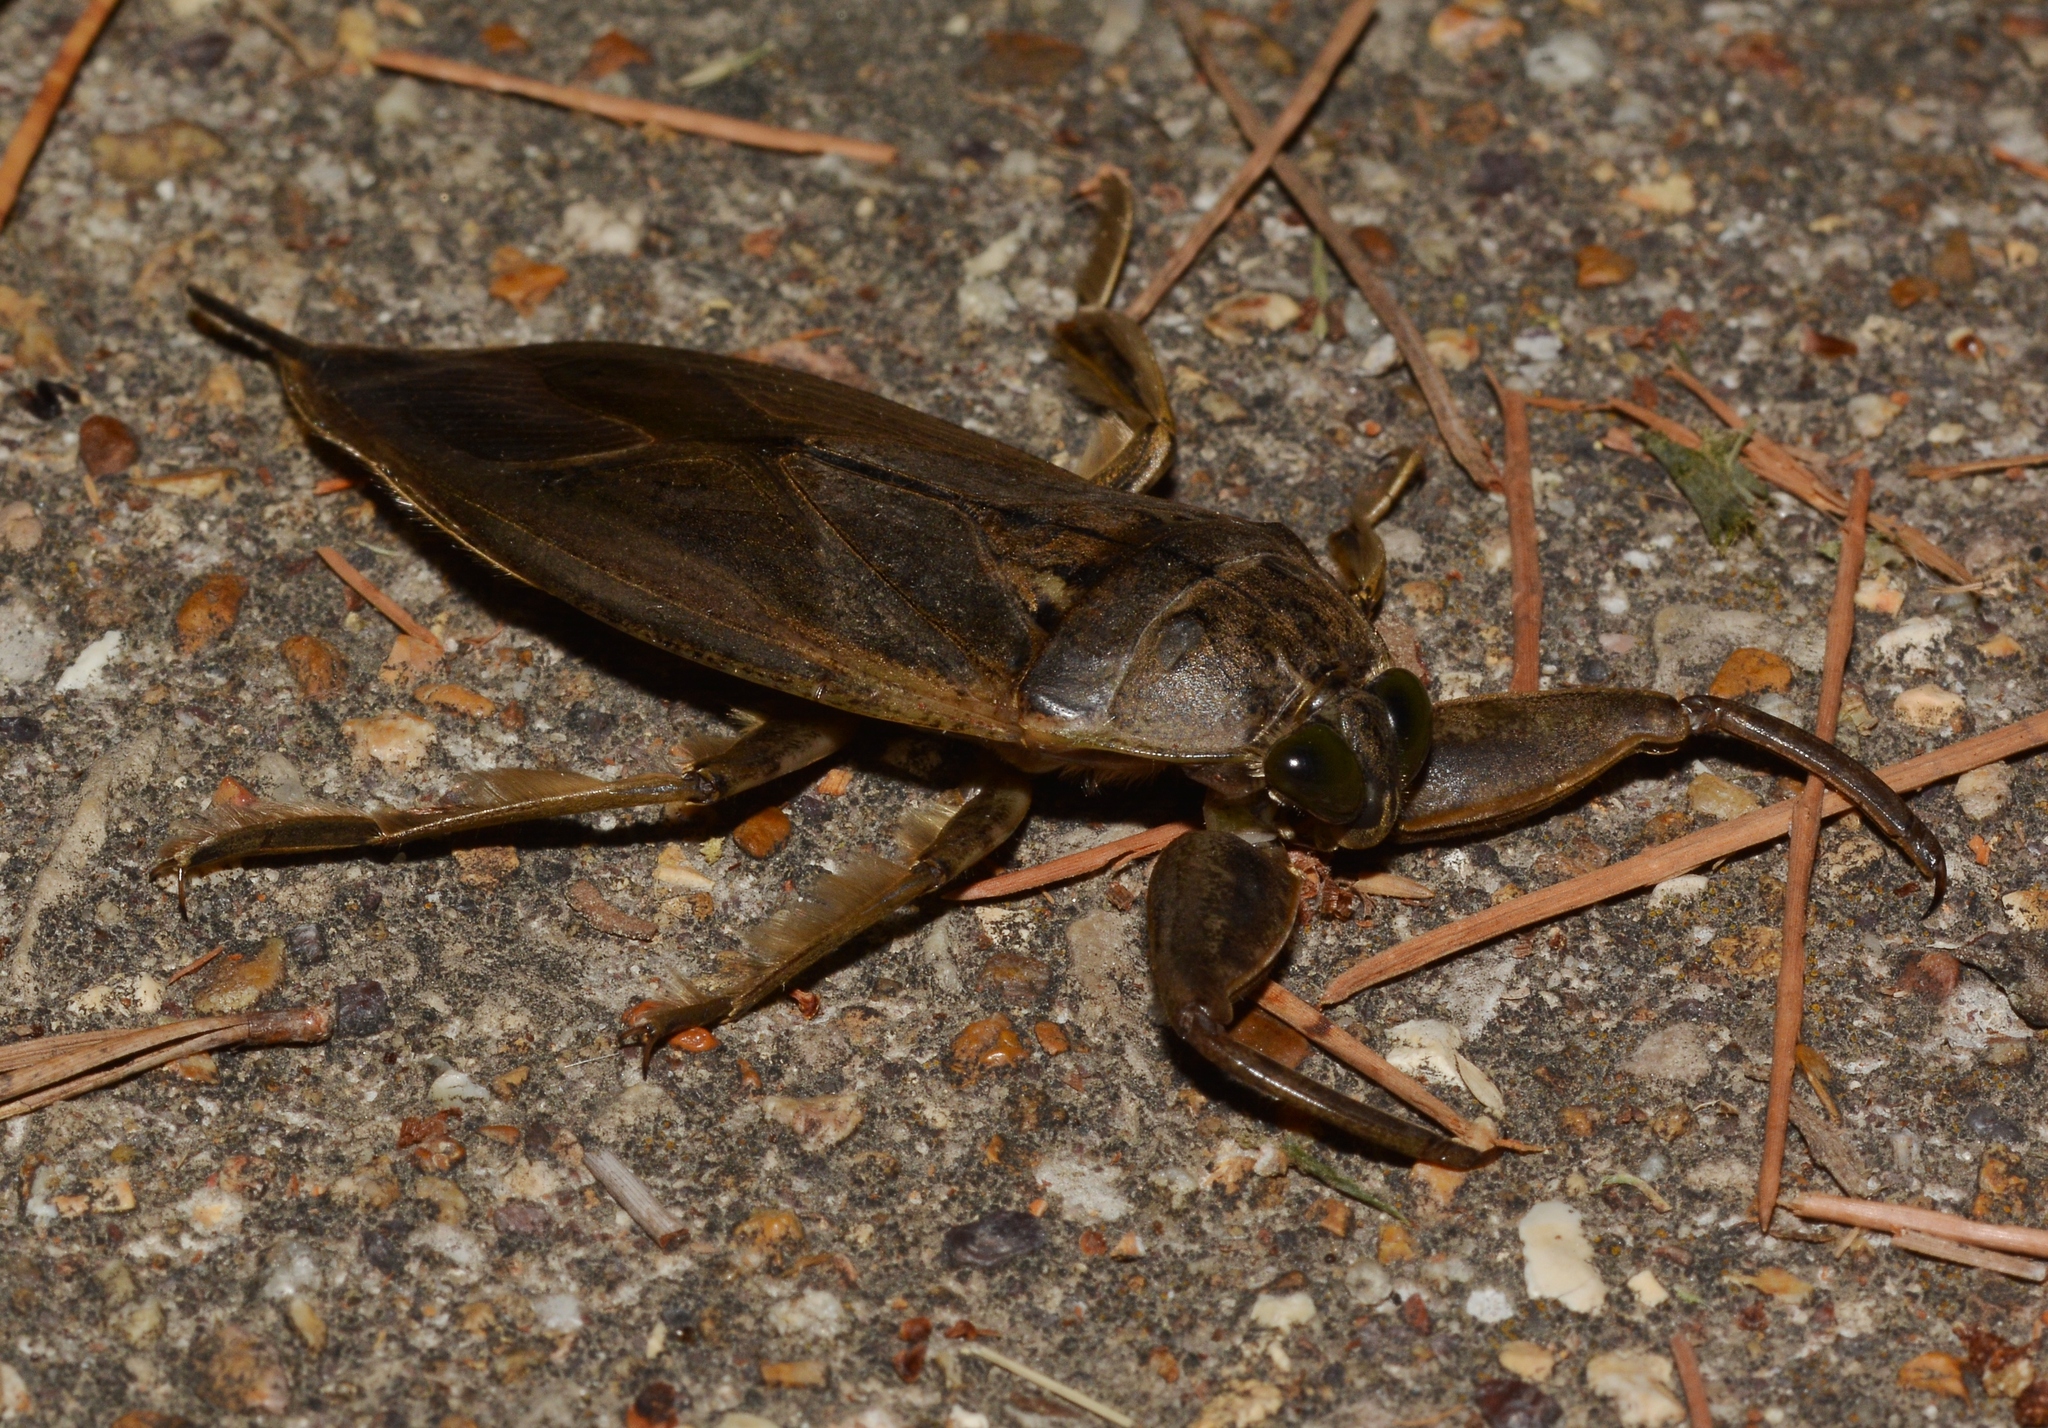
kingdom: Animalia
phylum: Arthropoda
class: Insecta
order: Hemiptera
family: Belostomatidae
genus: Lethocerus
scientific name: Lethocerus
